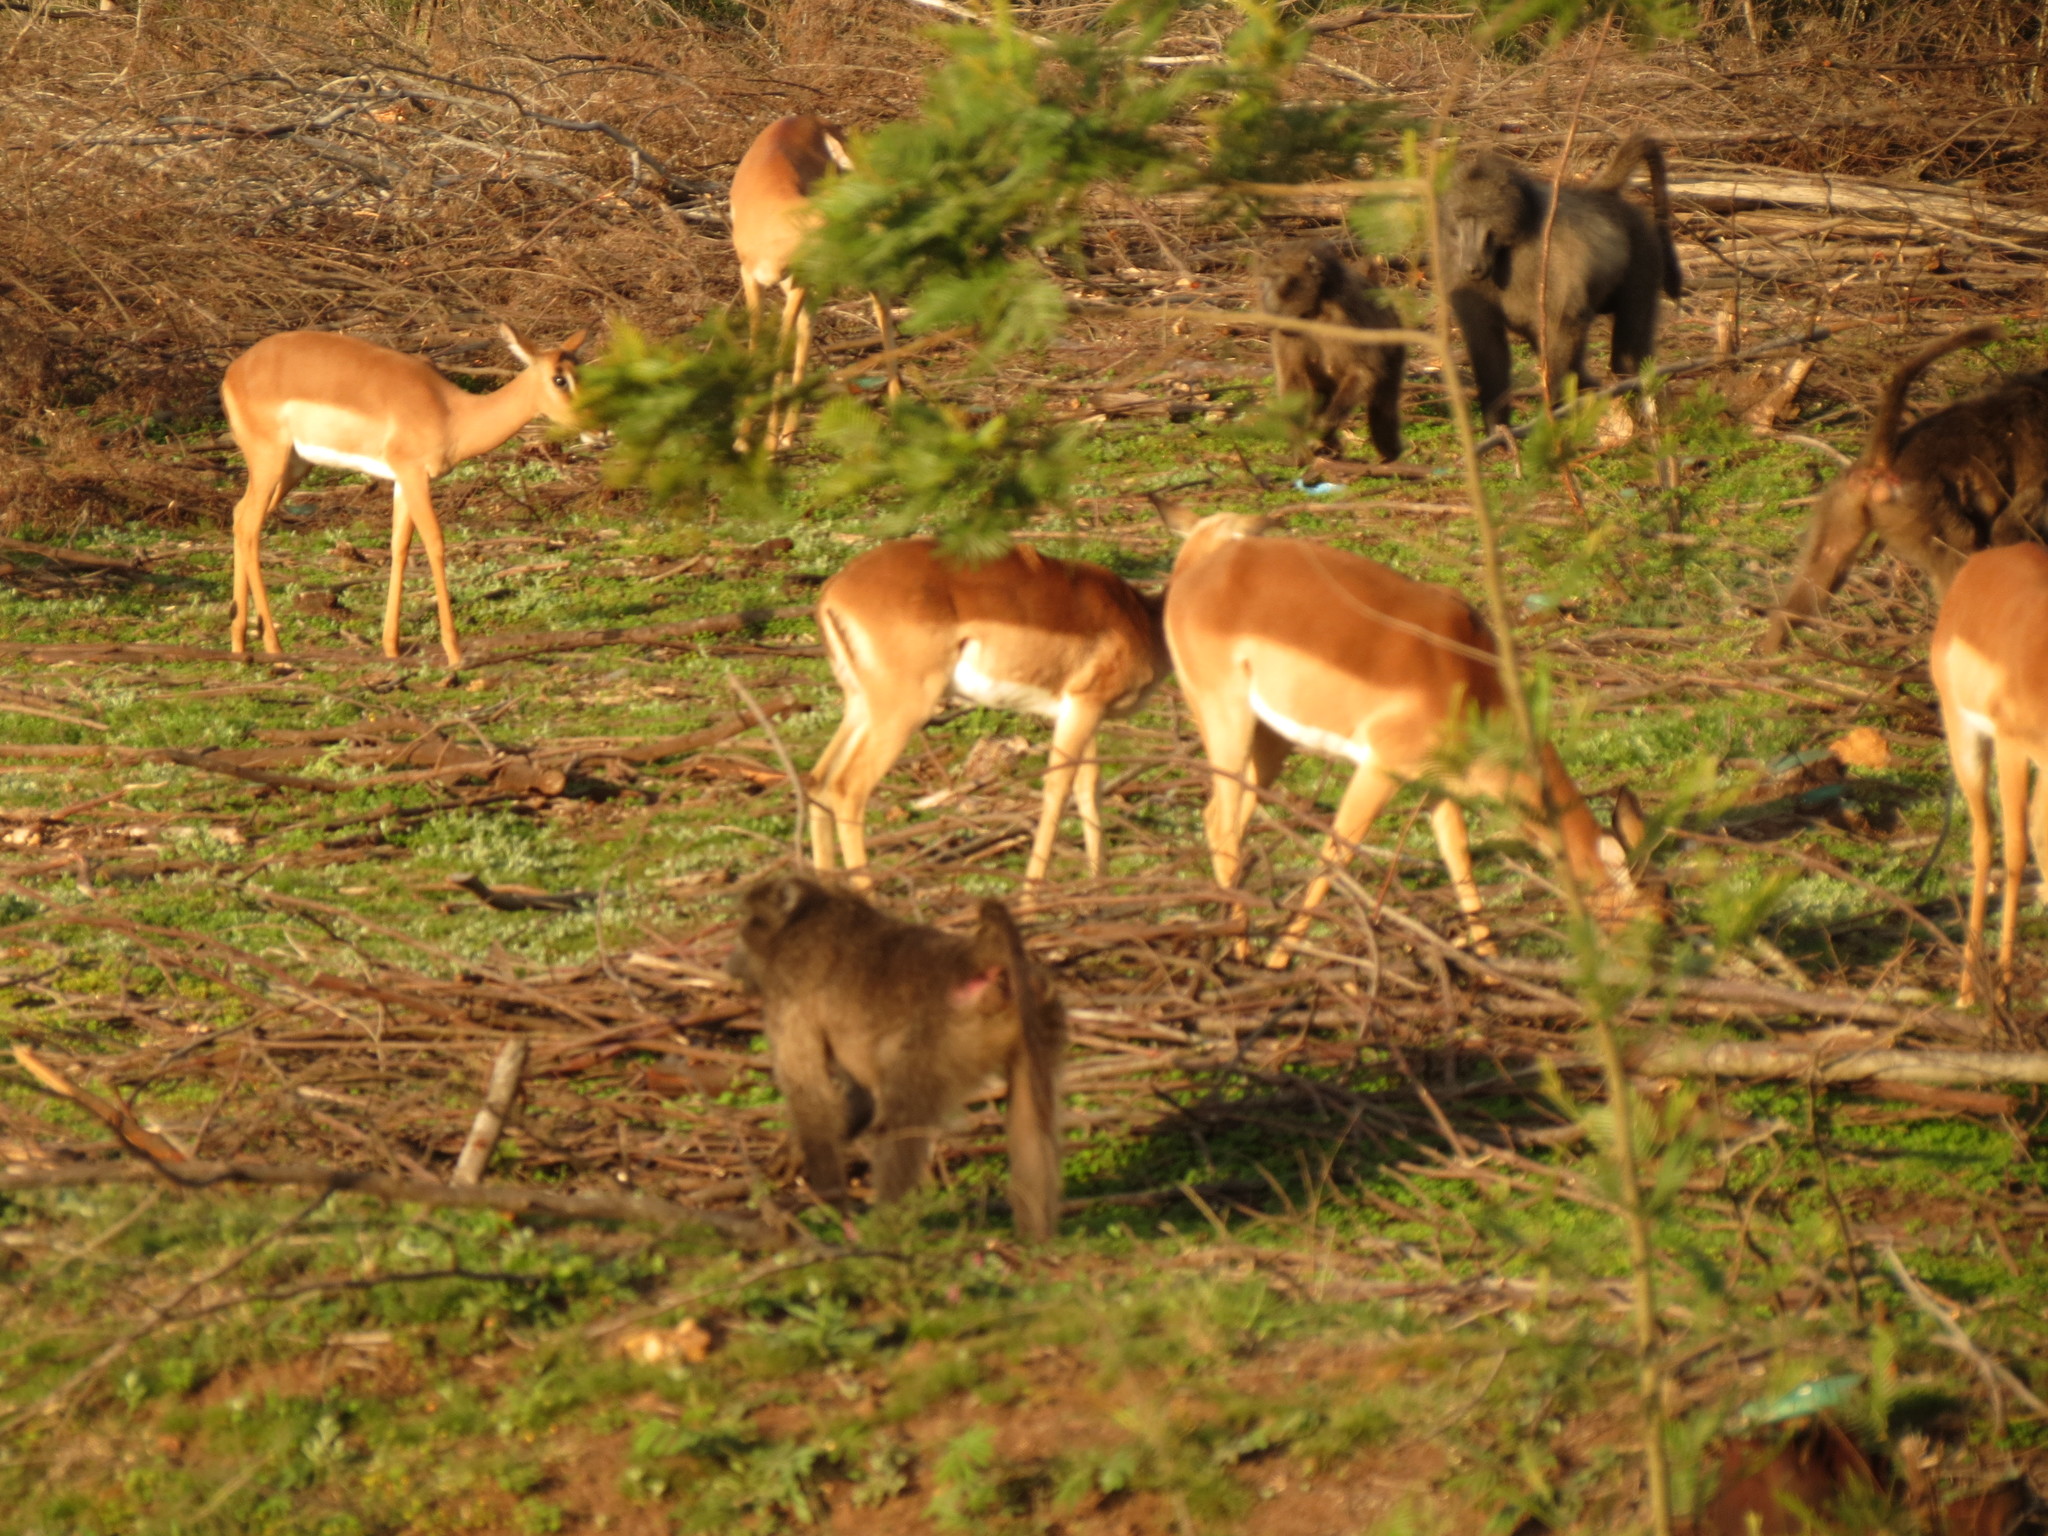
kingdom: Animalia
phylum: Chordata
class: Mammalia
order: Primates
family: Cercopithecidae
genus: Papio
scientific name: Papio ursinus
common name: Chacma baboon
